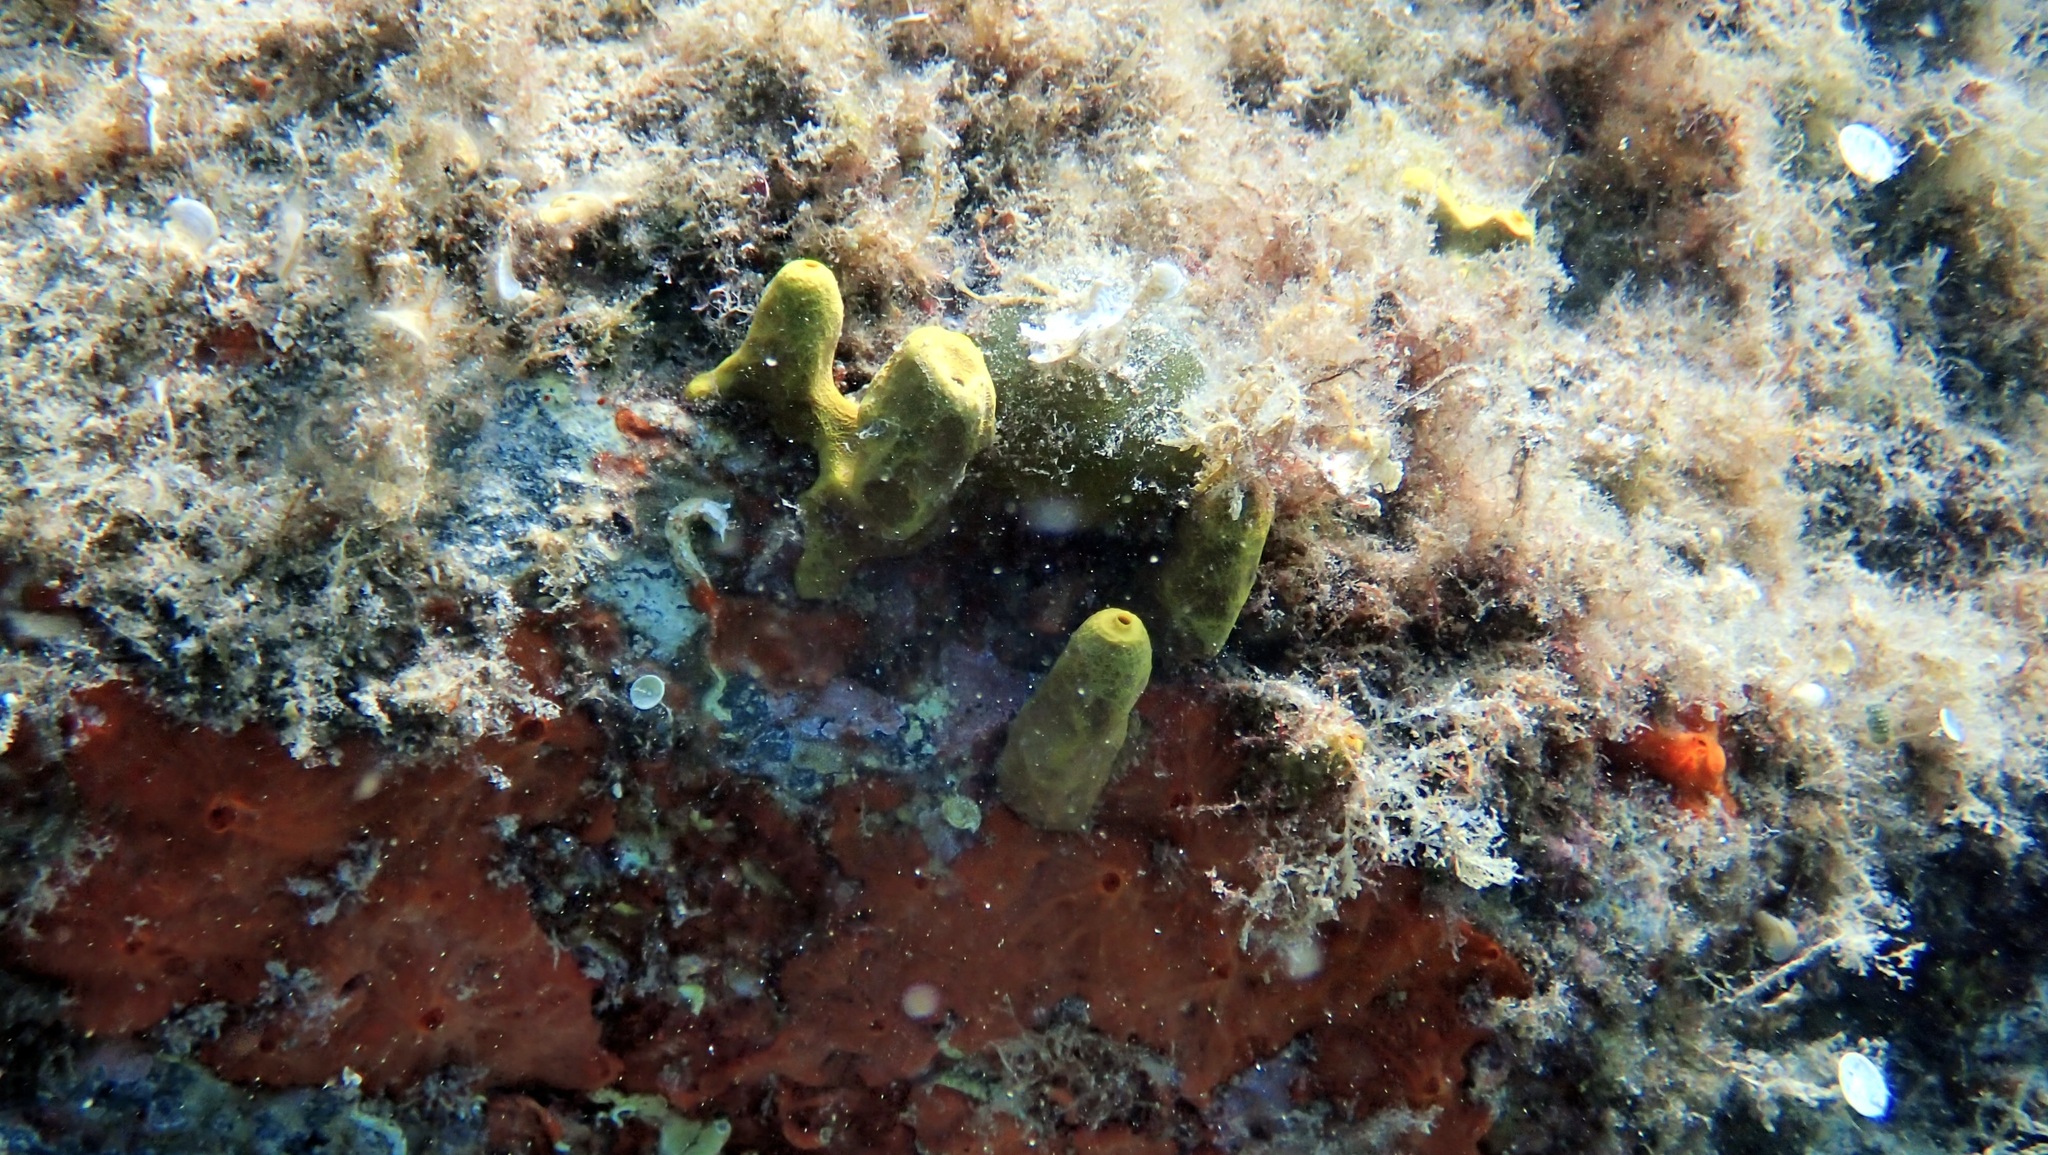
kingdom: Animalia
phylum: Porifera
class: Demospongiae
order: Verongiida
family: Aplysinidae
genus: Aplysina
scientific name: Aplysina aerophoba
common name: Aureate sponge
